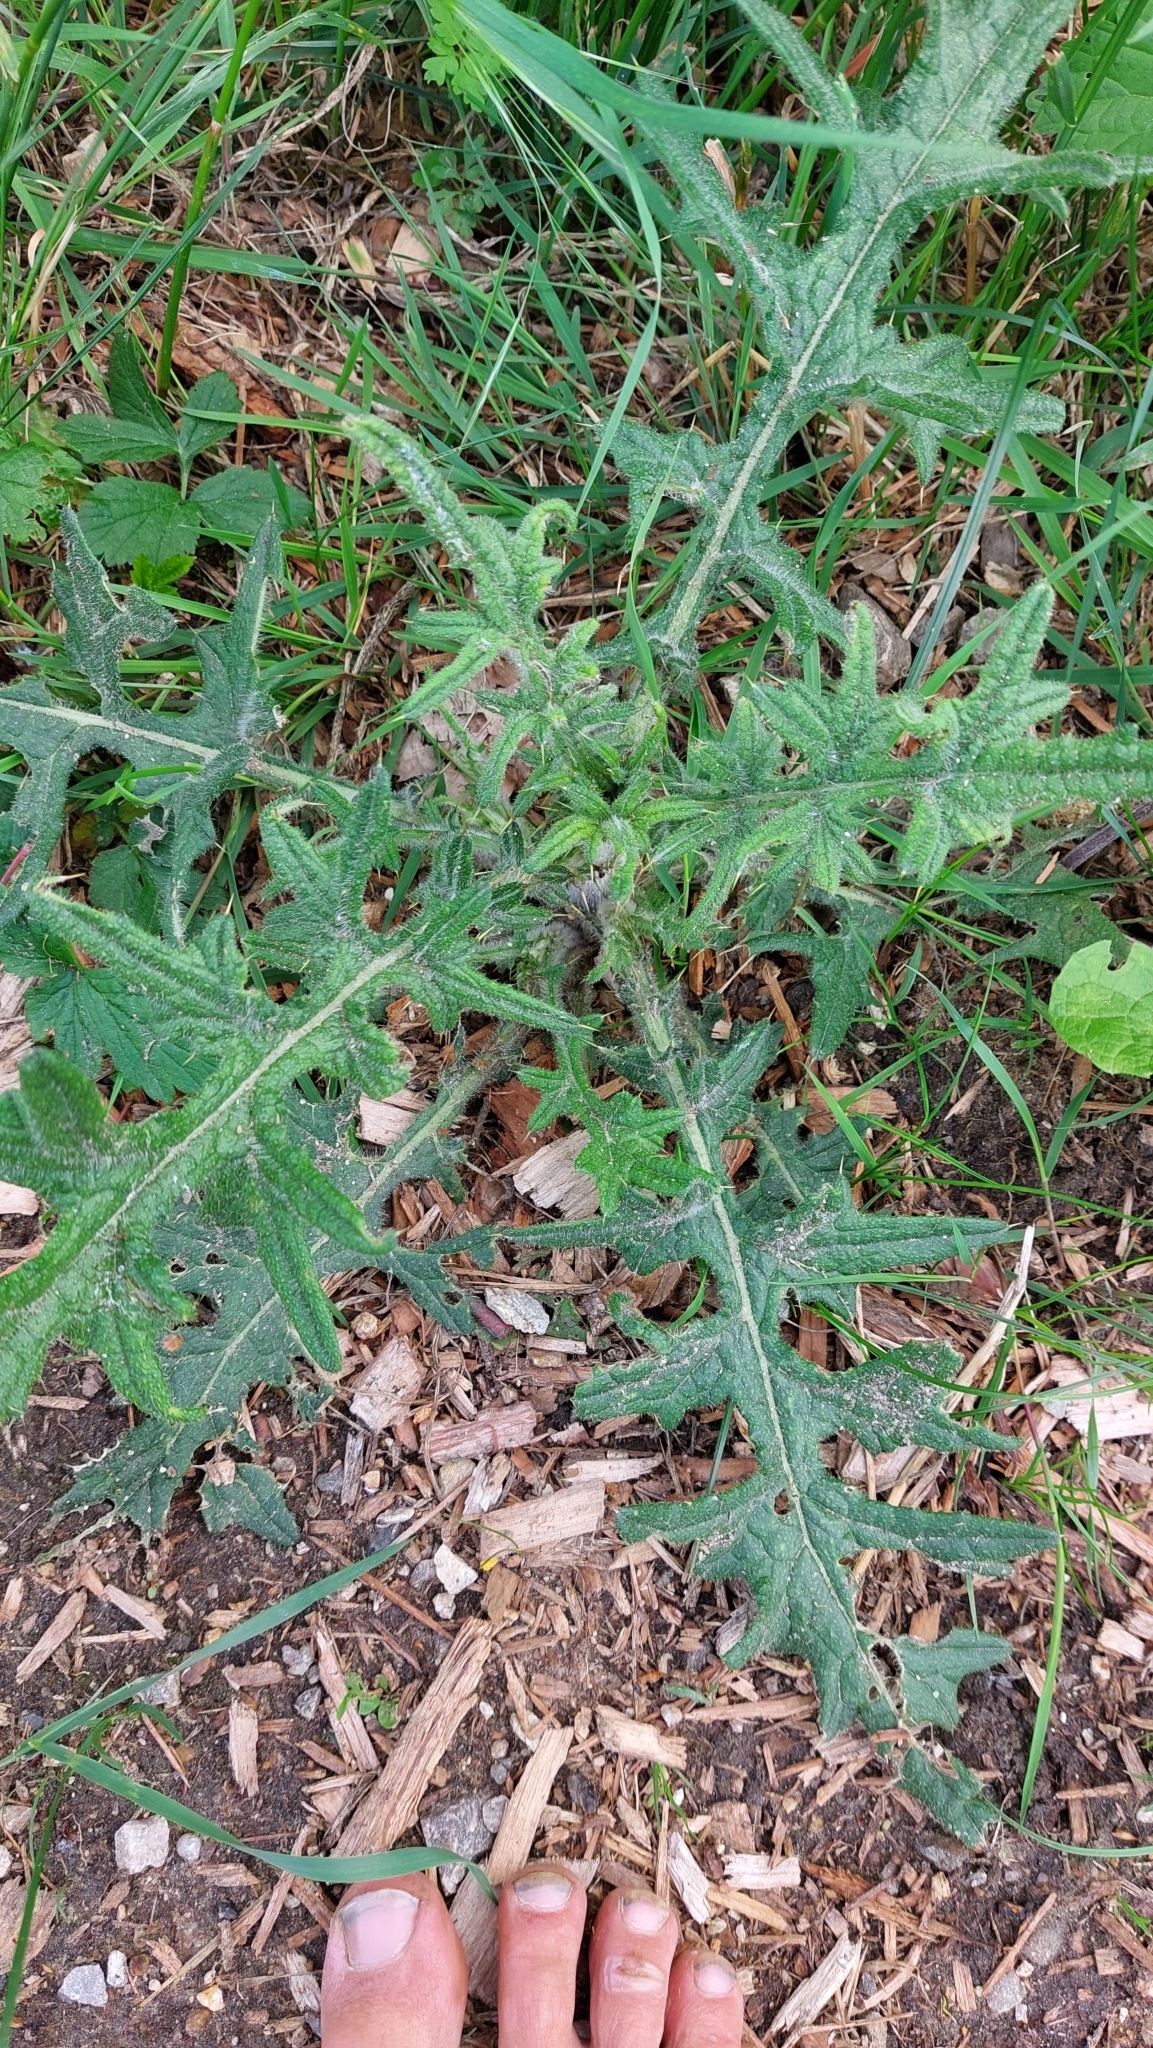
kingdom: Plantae
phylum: Tracheophyta
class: Magnoliopsida
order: Asterales
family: Asteraceae
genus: Cirsium
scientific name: Cirsium vulgare
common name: Bull thistle
